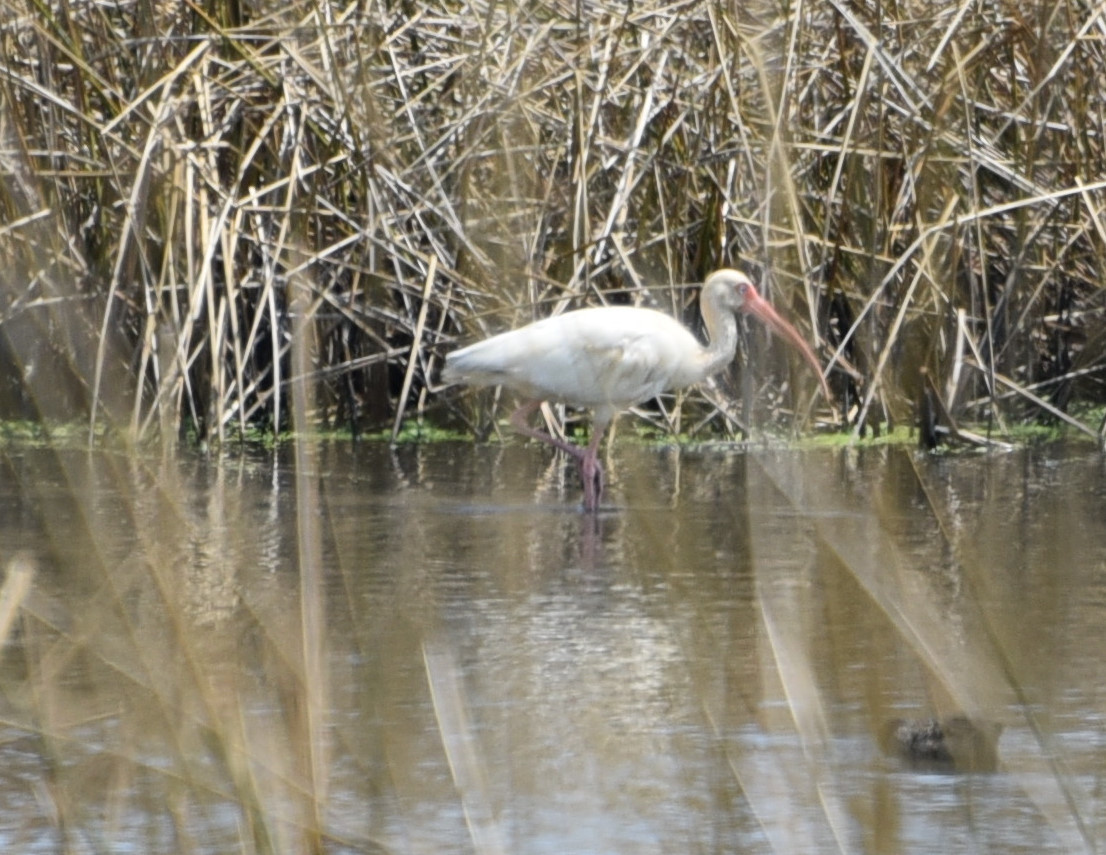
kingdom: Animalia
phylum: Chordata
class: Aves
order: Pelecaniformes
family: Threskiornithidae
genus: Eudocimus
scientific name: Eudocimus albus
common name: White ibis
